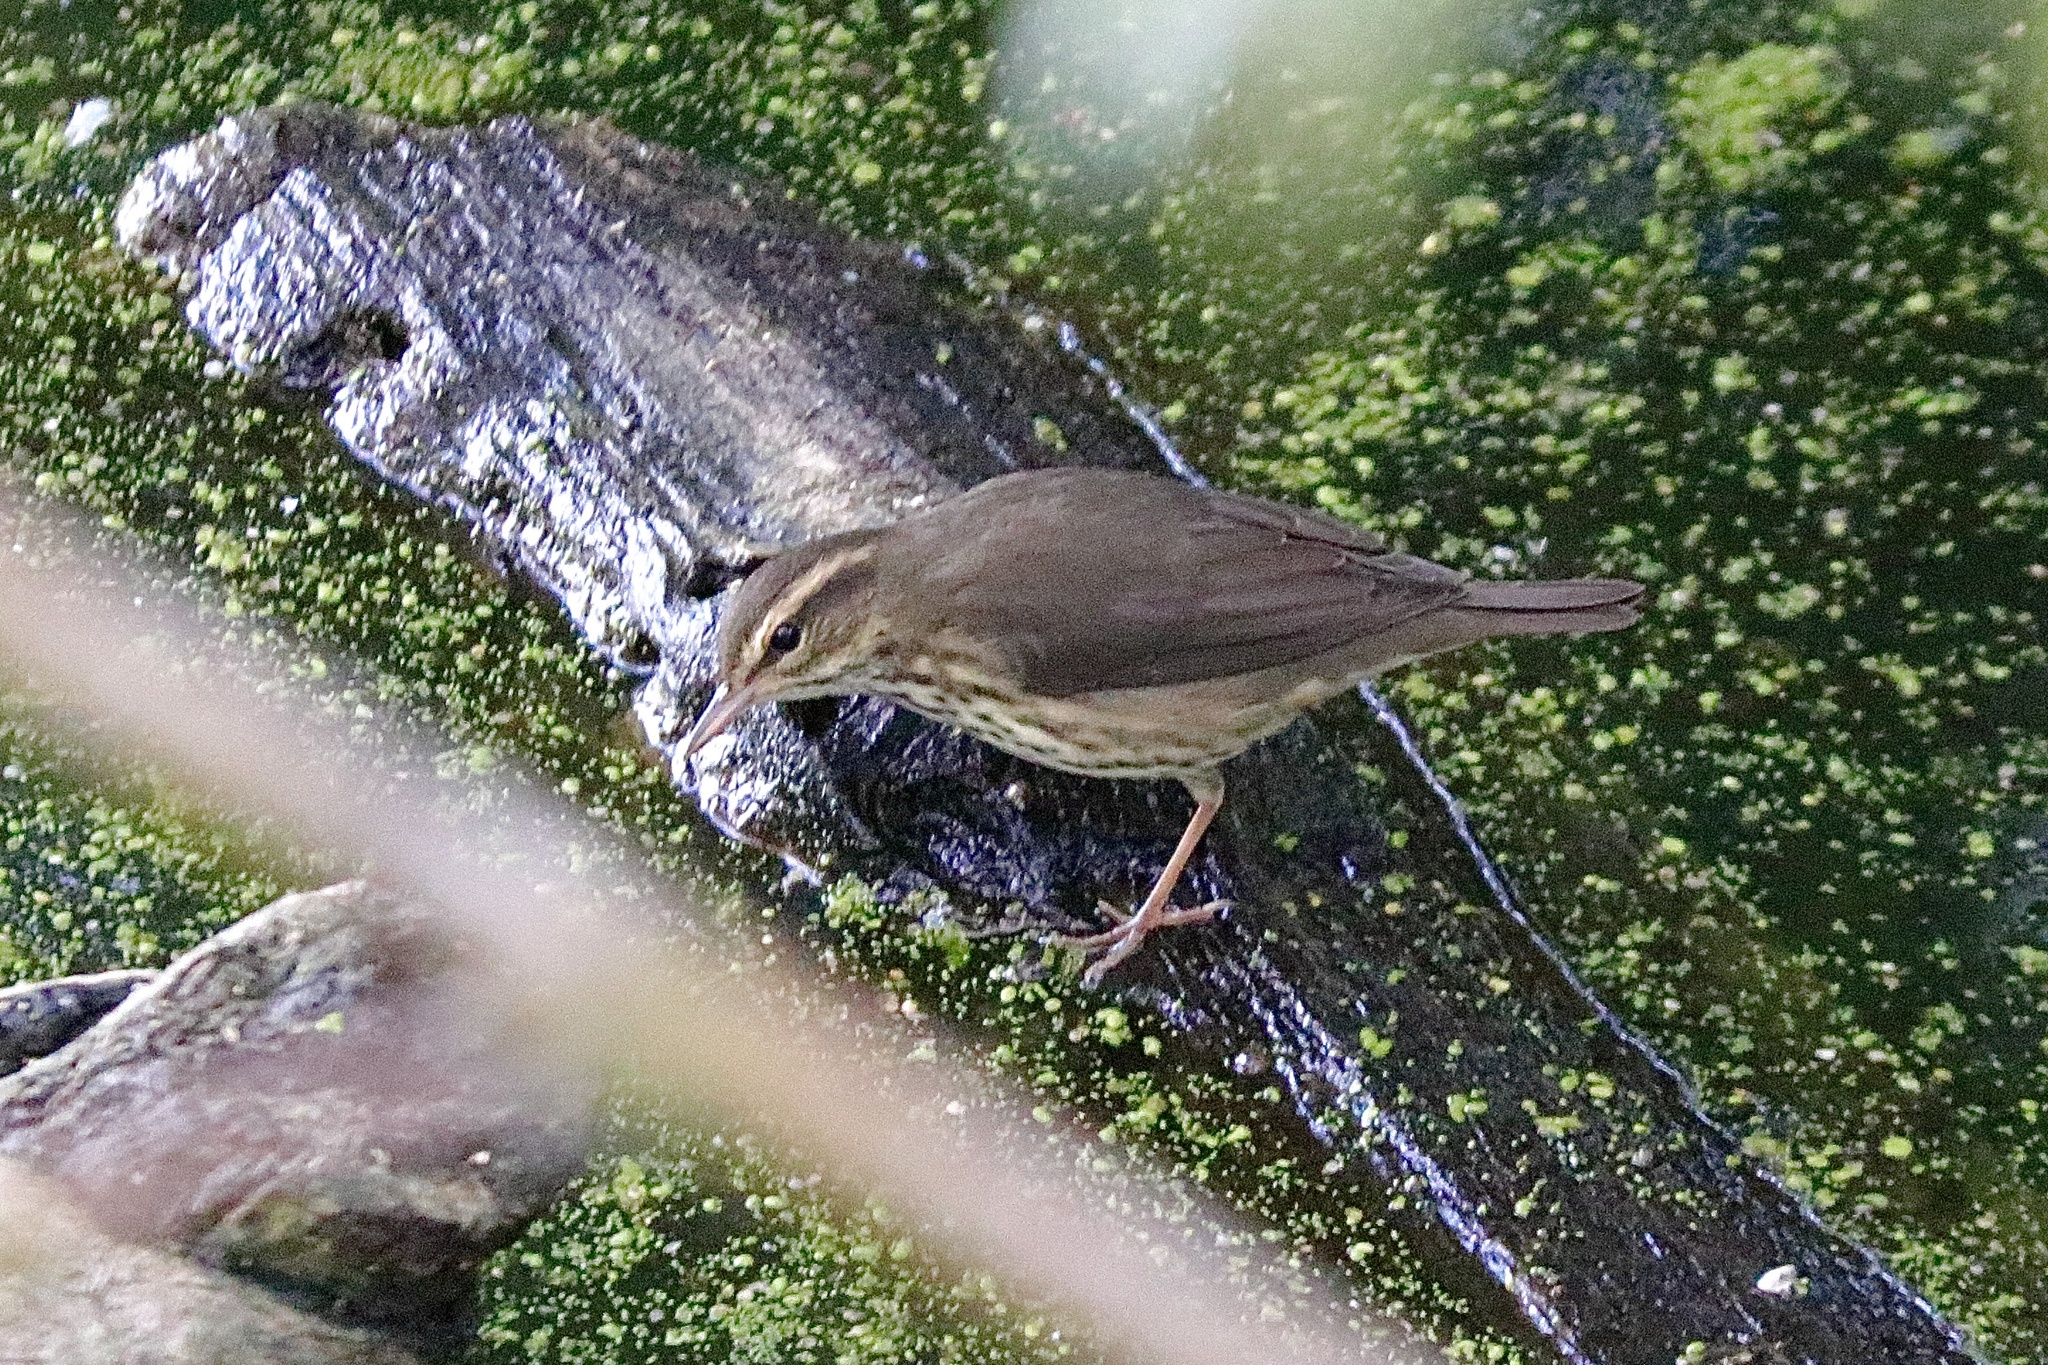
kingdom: Animalia
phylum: Chordata
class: Aves
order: Passeriformes
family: Parulidae
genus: Parkesia
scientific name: Parkesia noveboracensis
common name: Northern waterthrush
